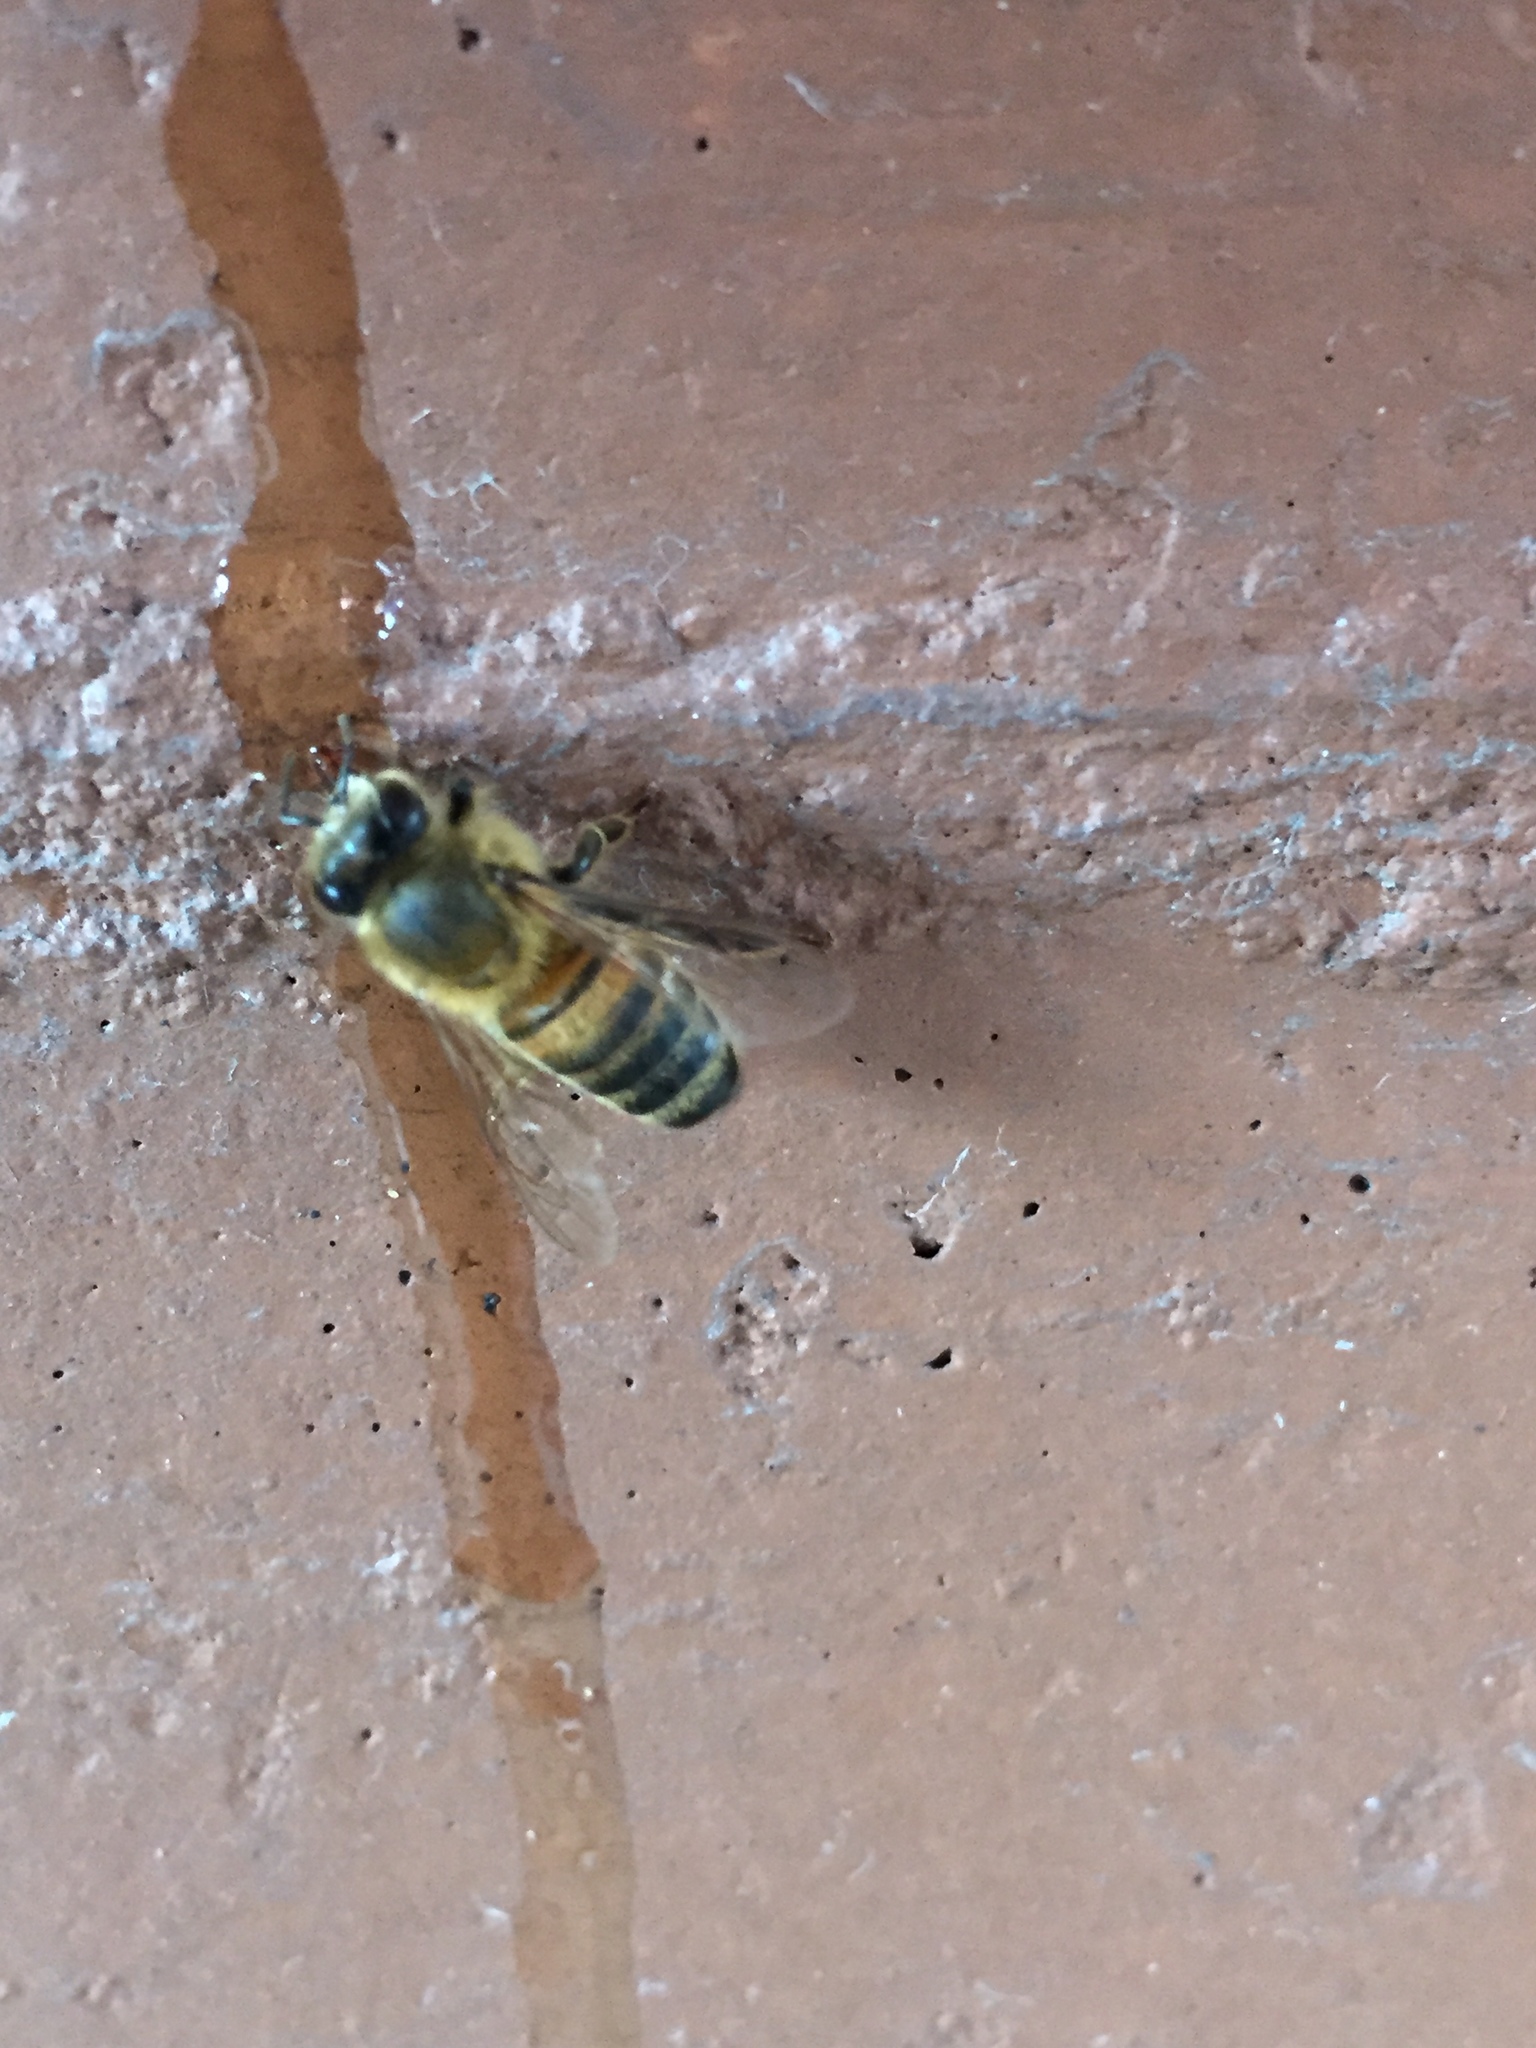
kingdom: Animalia
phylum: Arthropoda
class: Insecta
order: Hymenoptera
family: Apidae
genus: Apis
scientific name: Apis mellifera
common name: Honey bee
